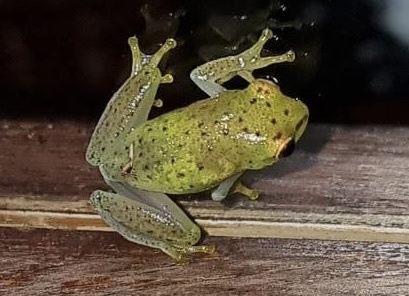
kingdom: Animalia
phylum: Chordata
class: Amphibia
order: Anura
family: Hyperoliidae
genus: Hyperolius
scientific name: Hyperolius pusillus
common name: Water lily reed frog
